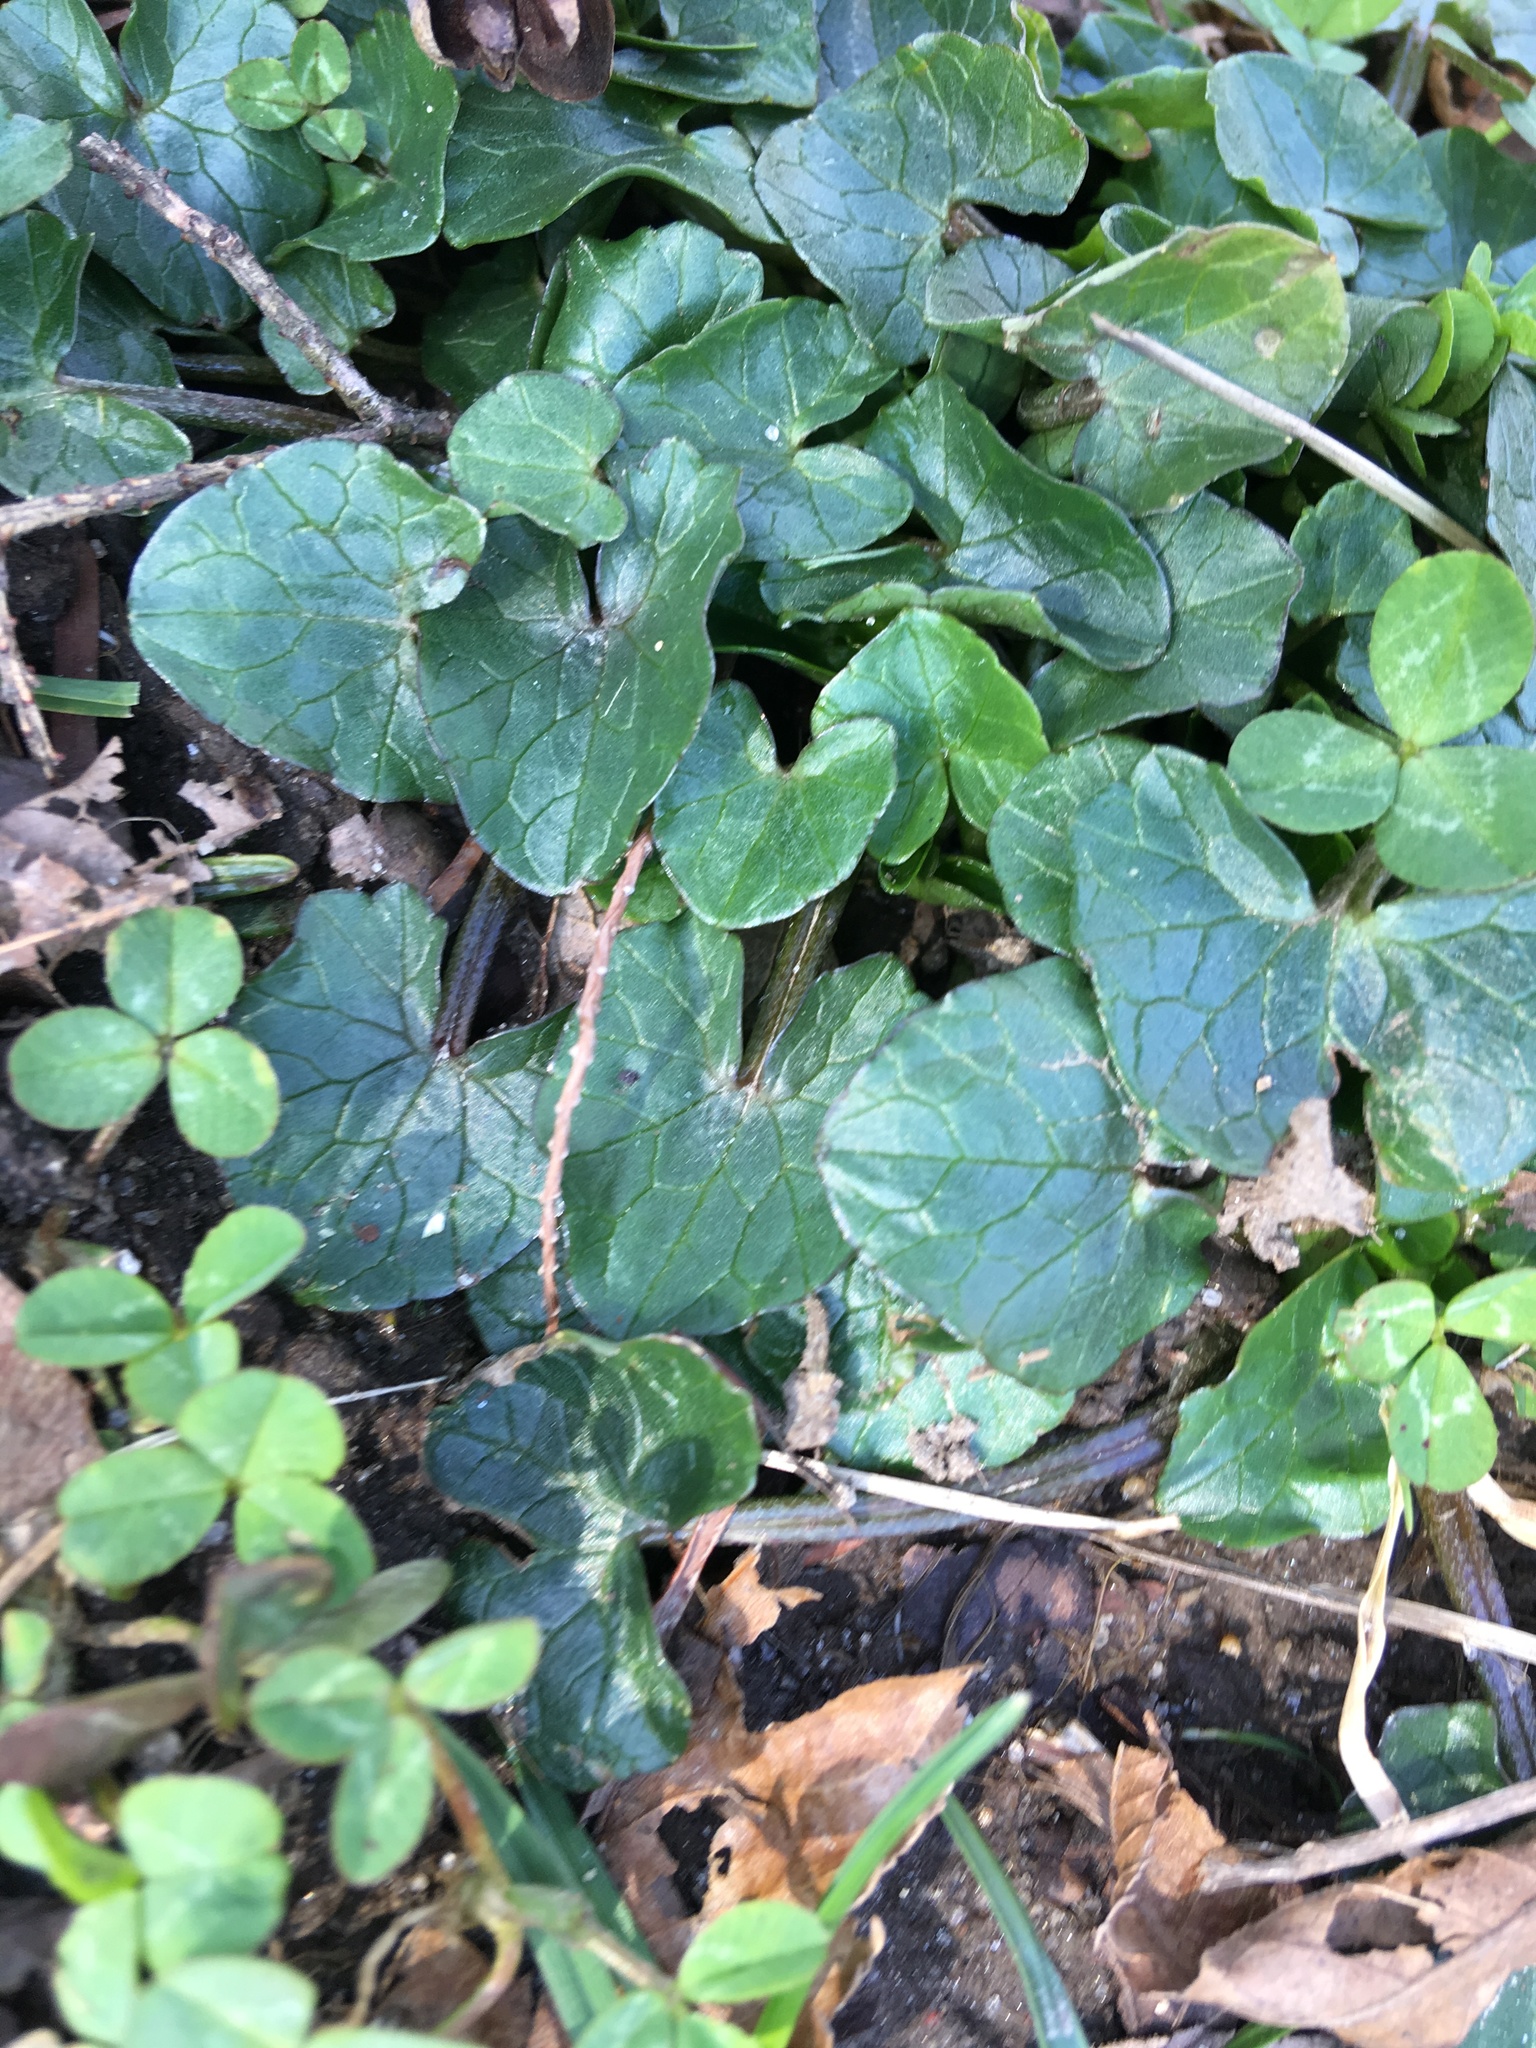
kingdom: Plantae
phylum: Tracheophyta
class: Magnoliopsida
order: Ranunculales
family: Ranunculaceae
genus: Ficaria
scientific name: Ficaria verna
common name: Lesser celandine
